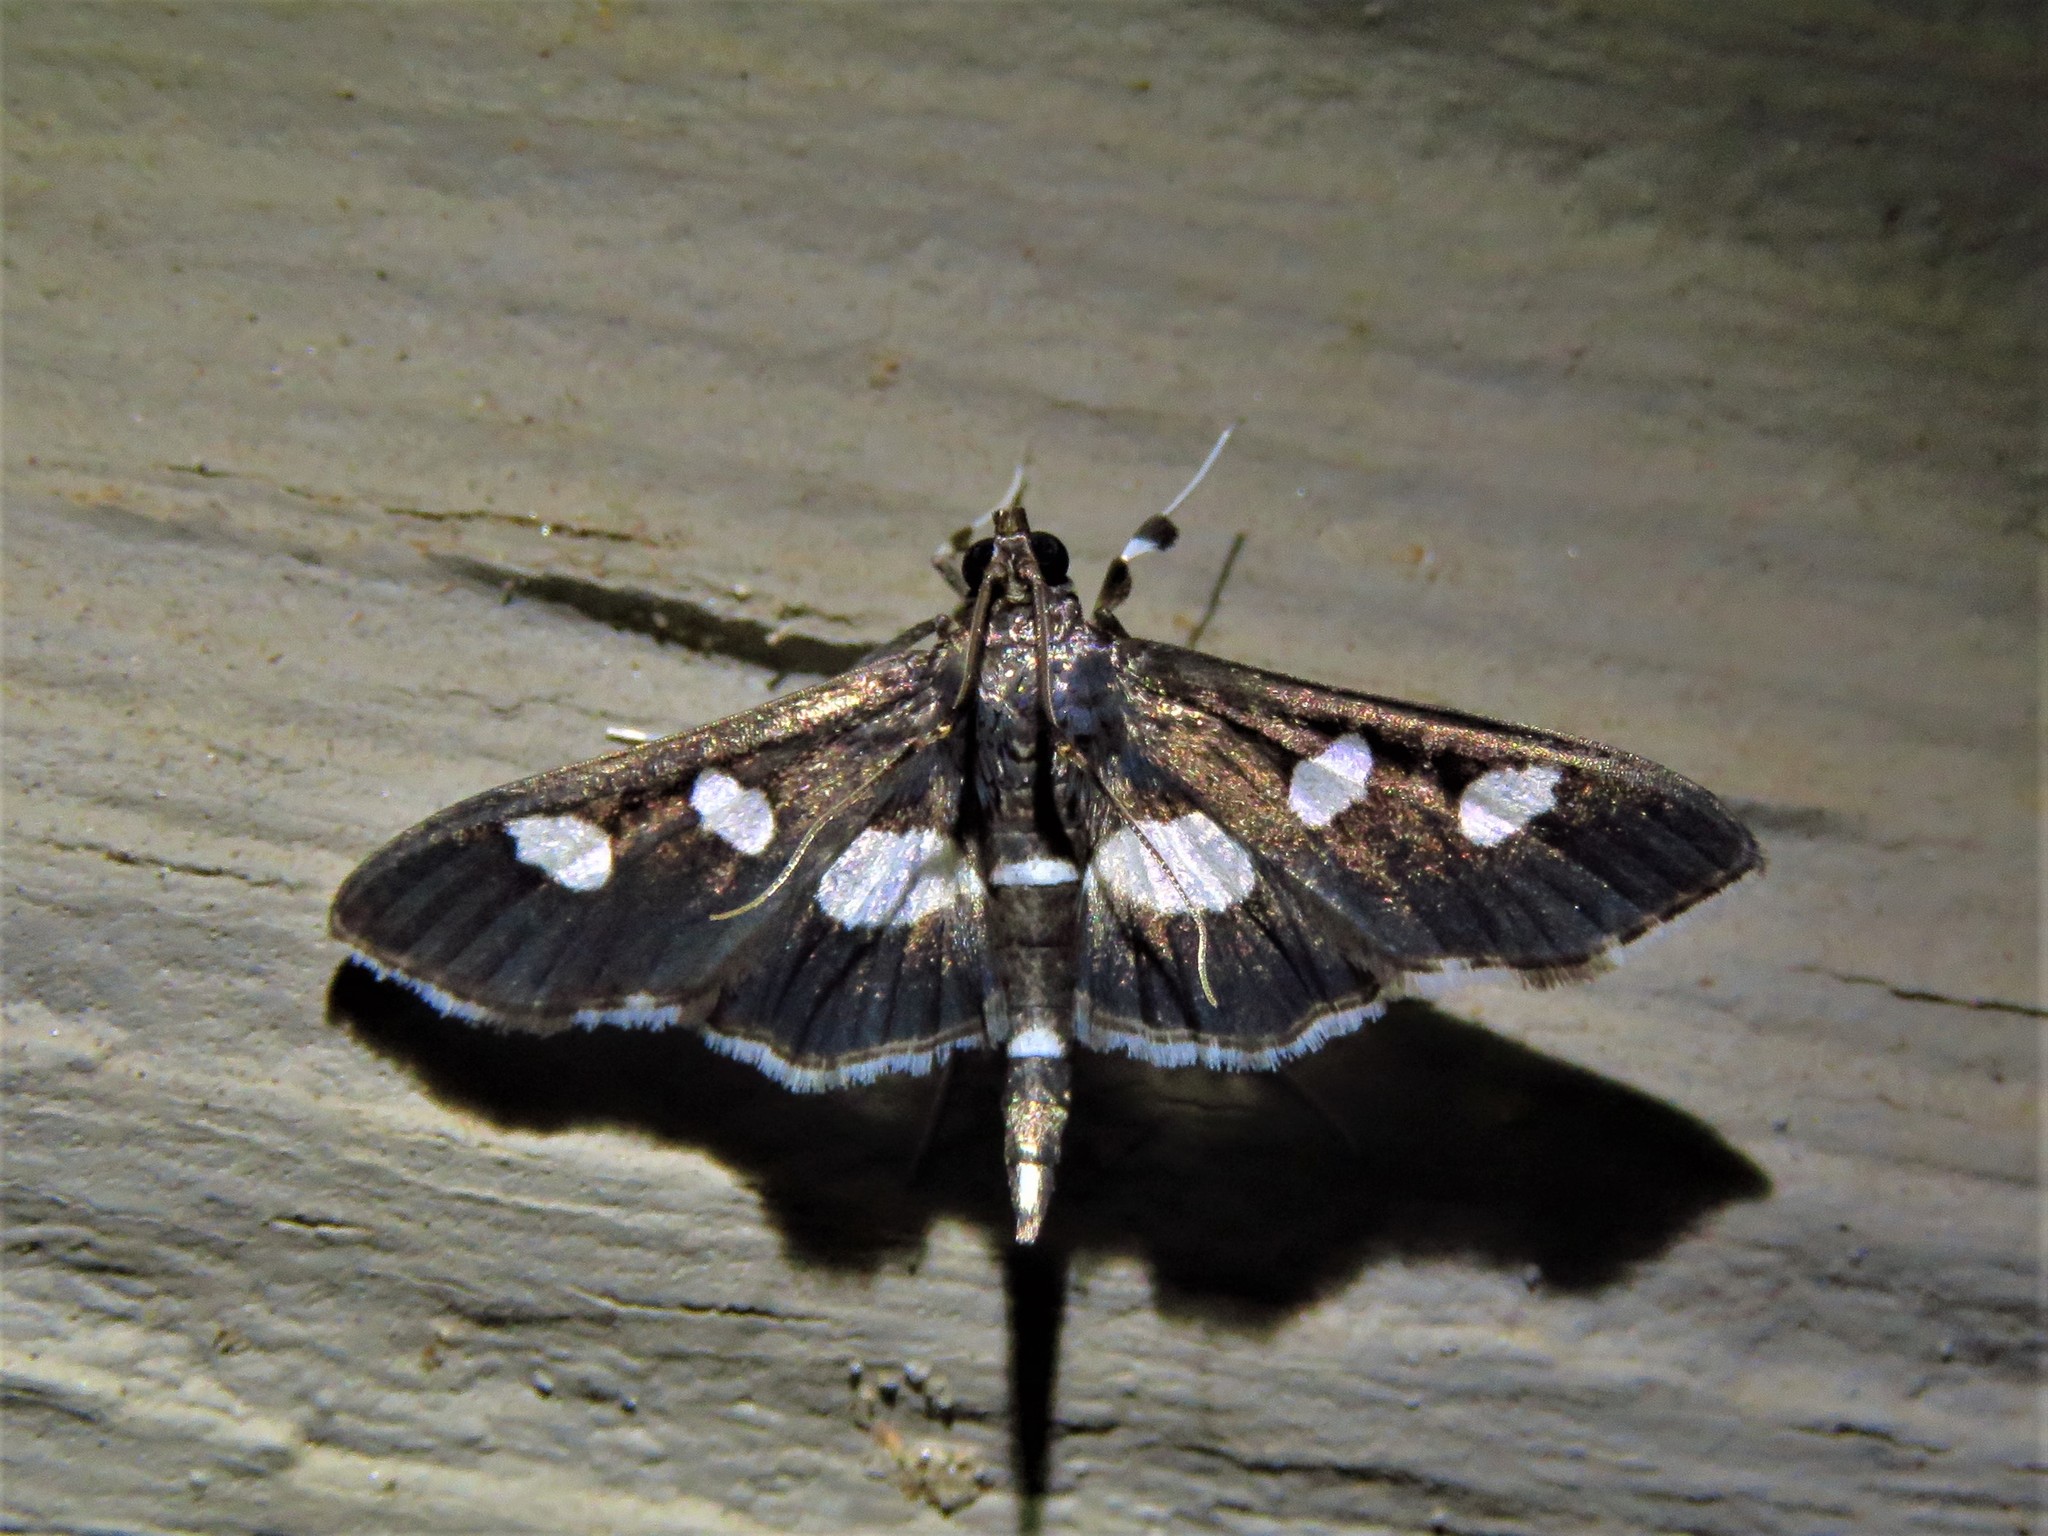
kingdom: Animalia
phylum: Arthropoda
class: Insecta
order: Lepidoptera
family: Crambidae
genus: Desmia
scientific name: Desmia
